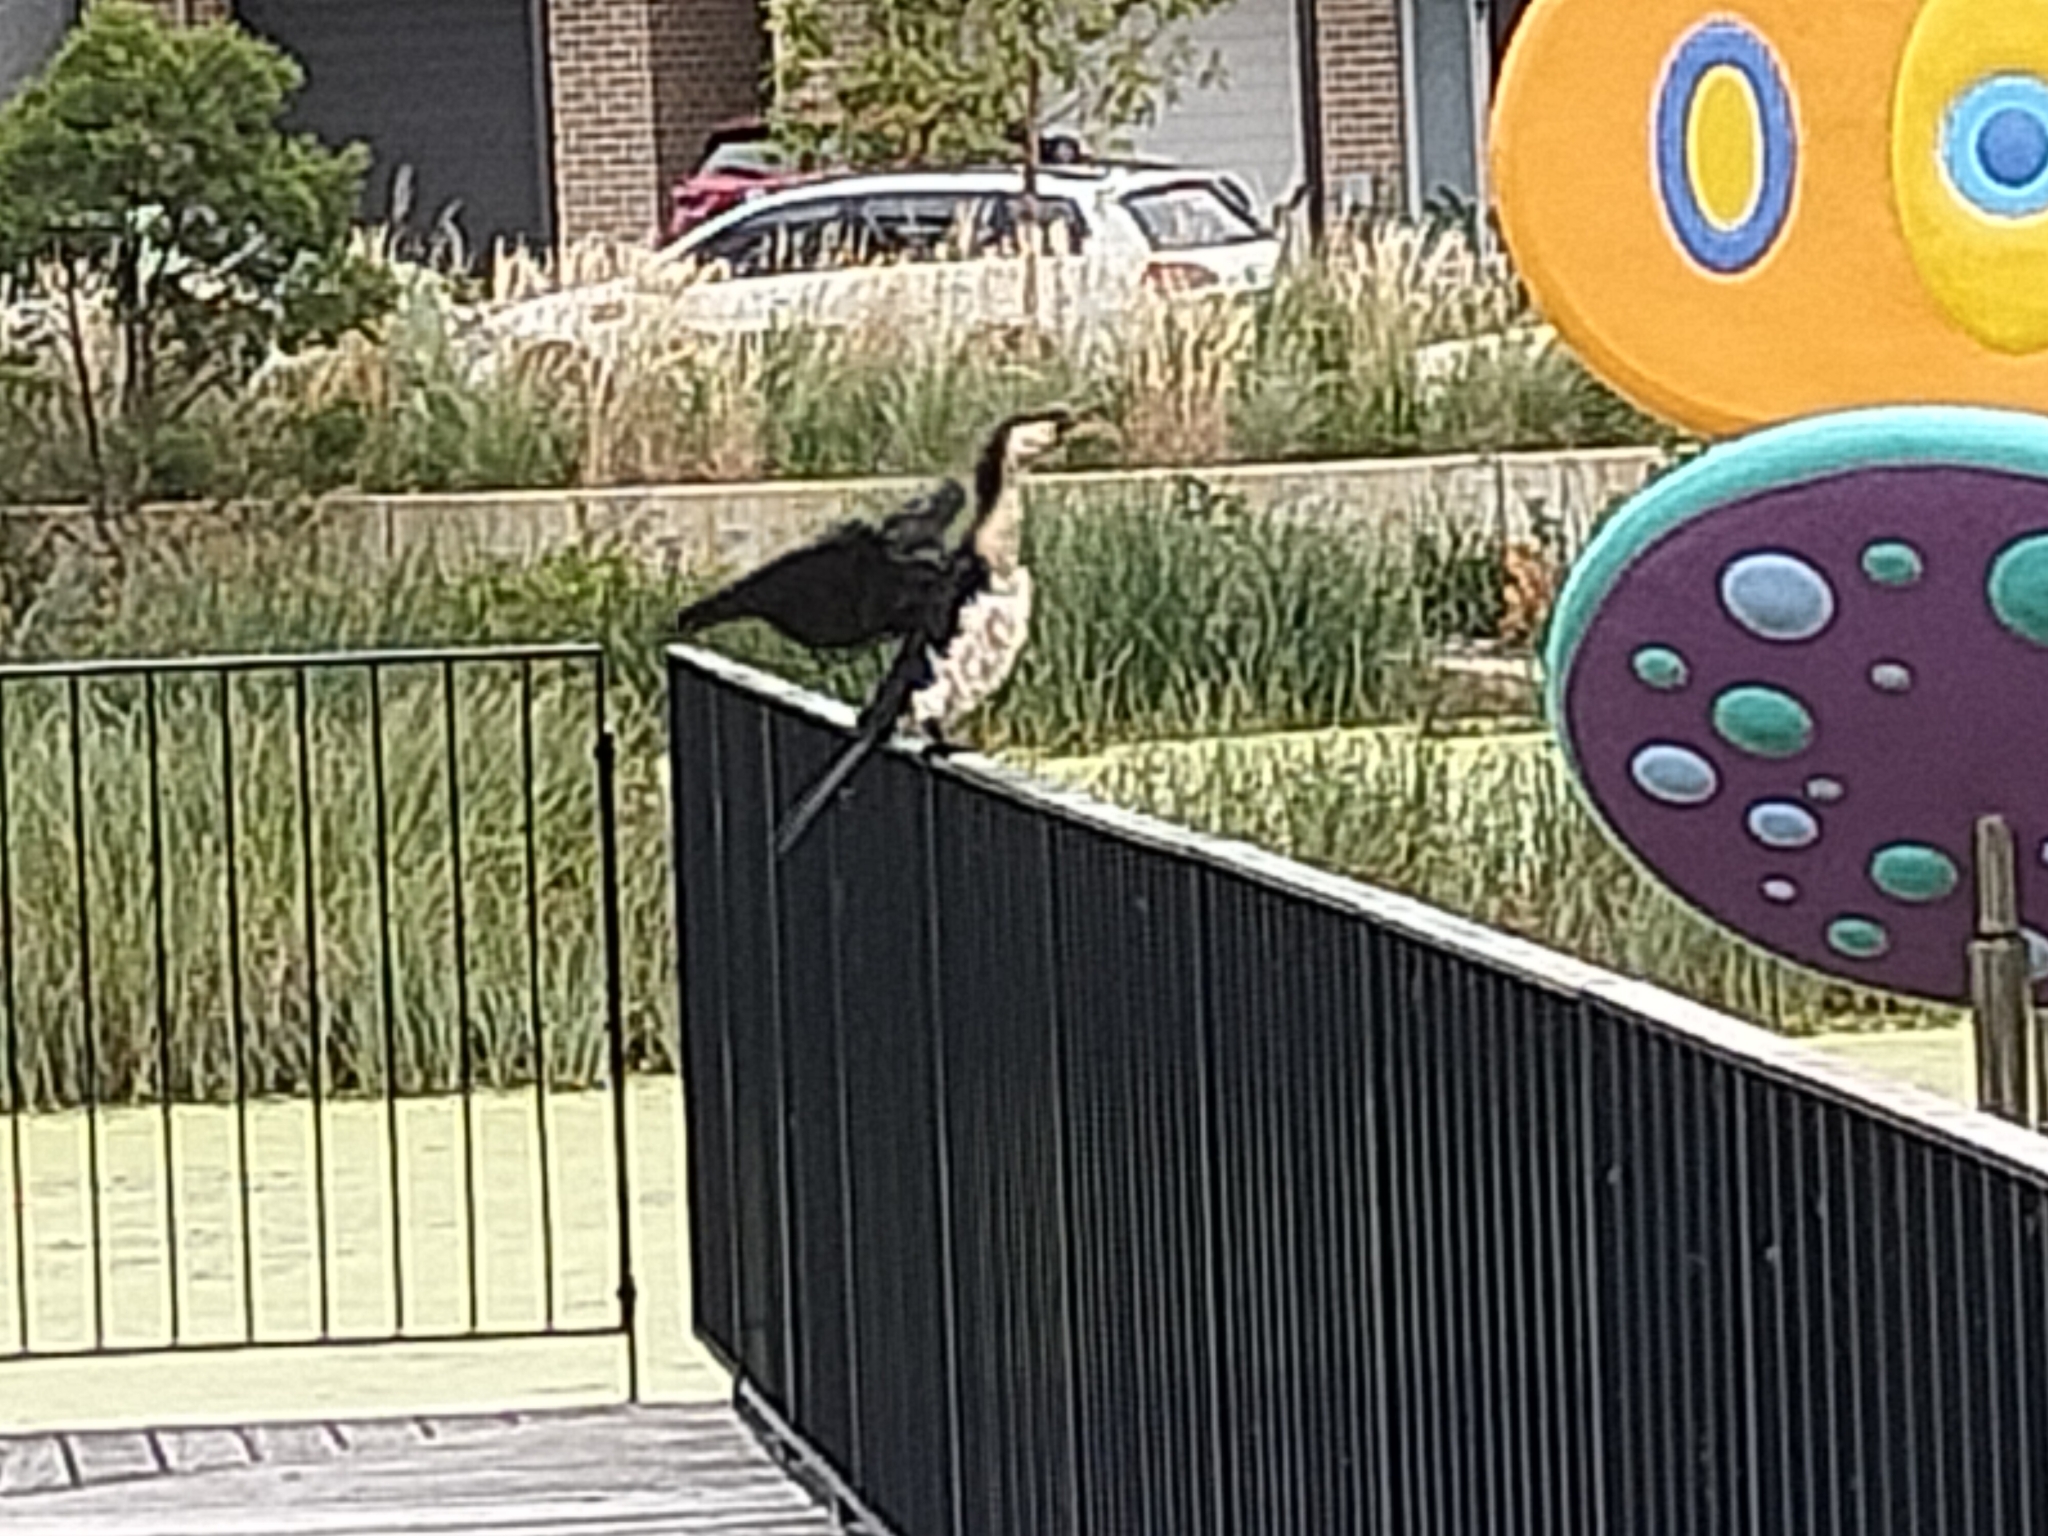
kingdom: Animalia
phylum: Chordata
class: Aves
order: Suliformes
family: Phalacrocoracidae
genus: Microcarbo
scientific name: Microcarbo melanoleucos
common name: Little pied cormorant
